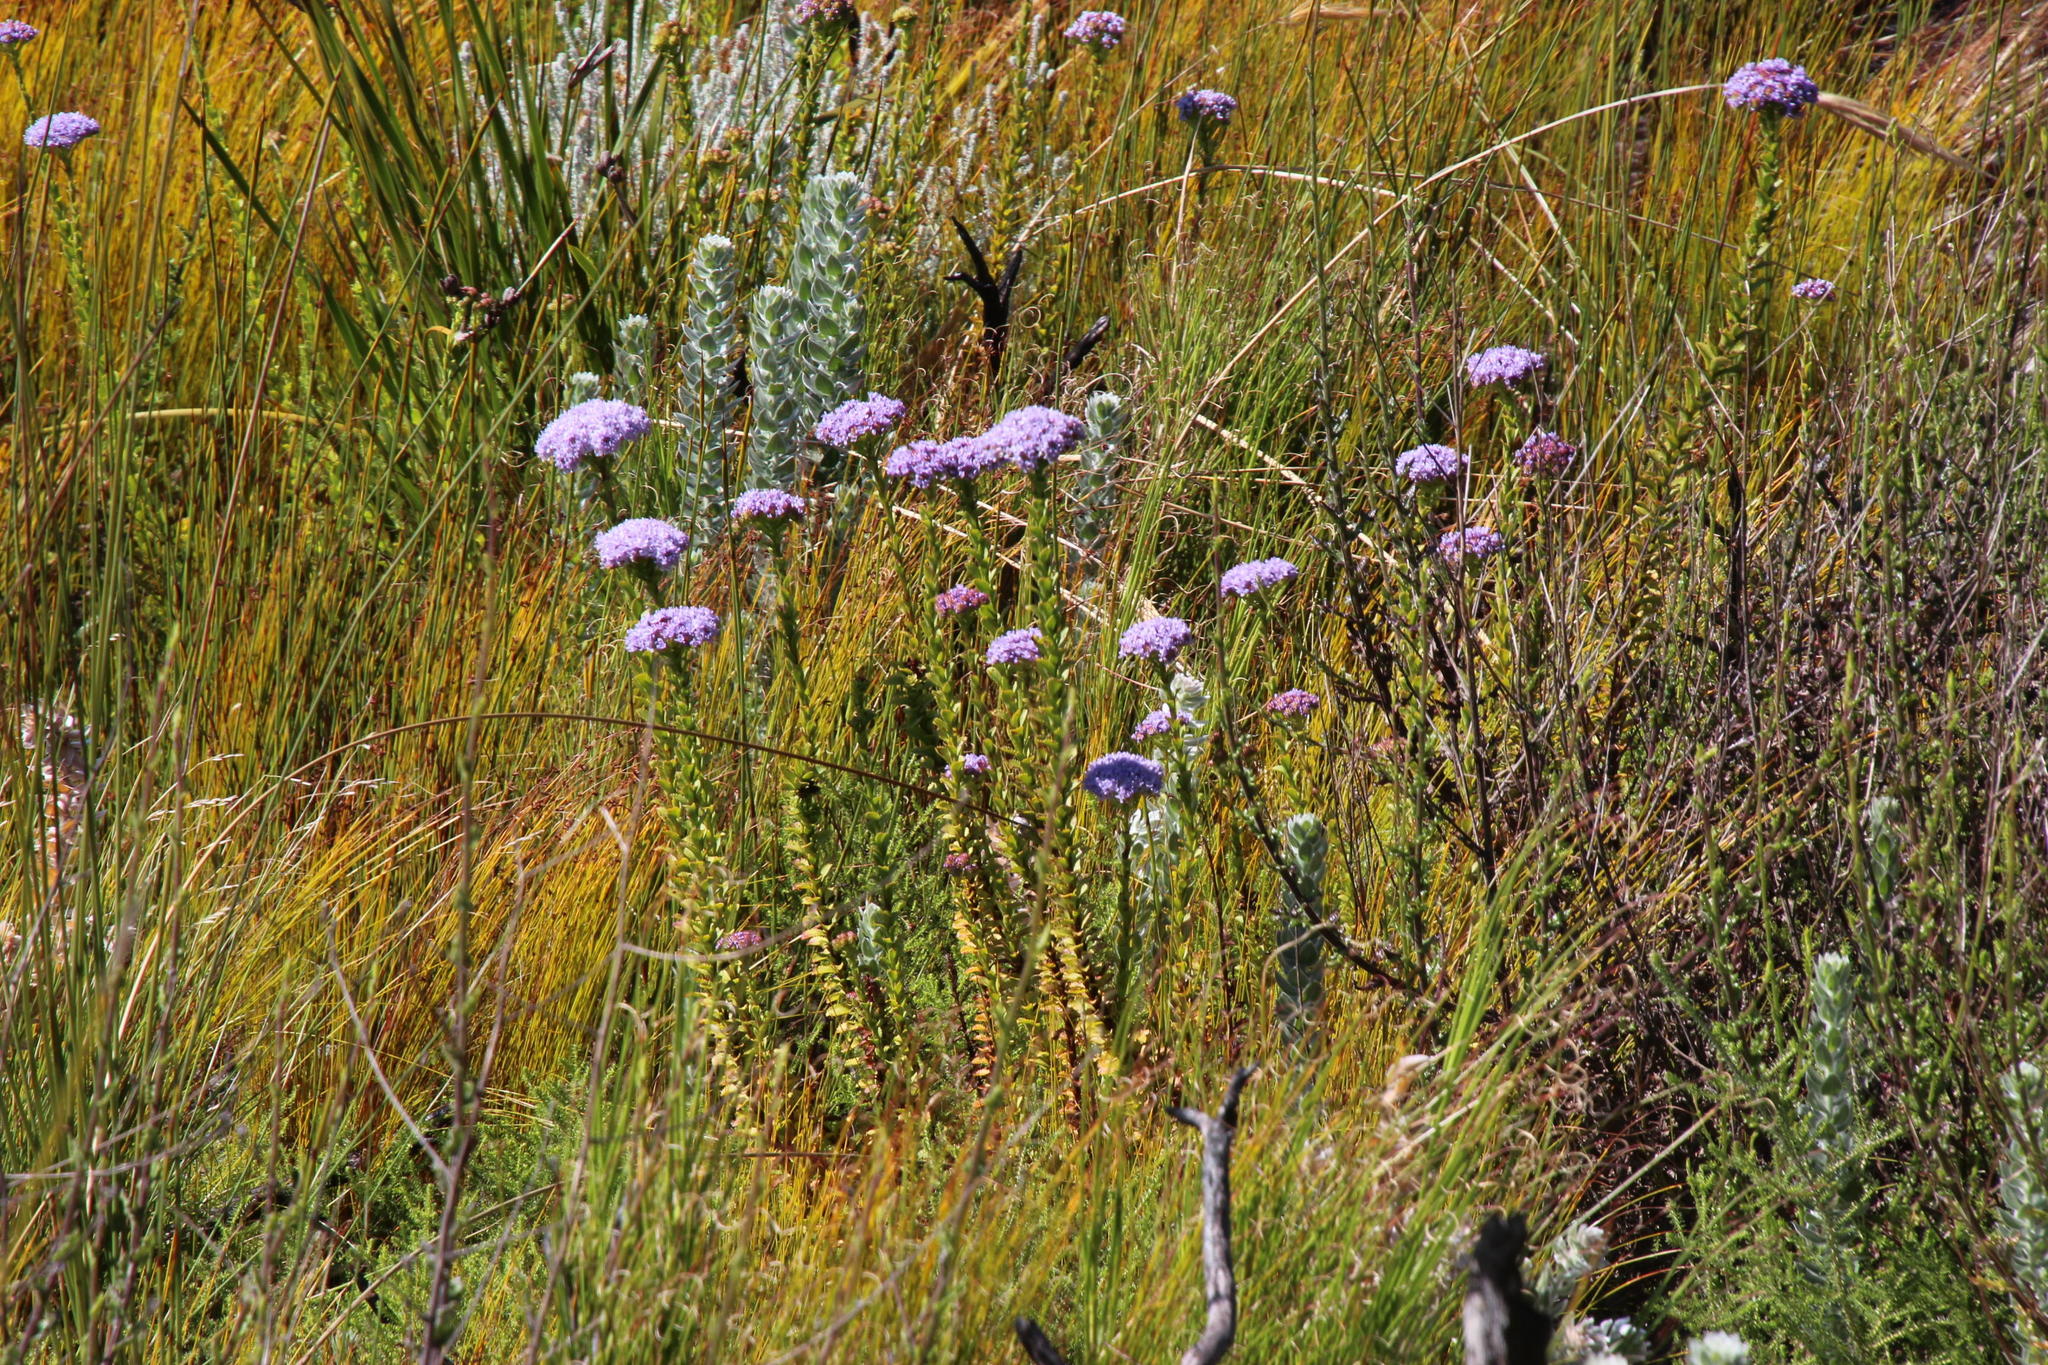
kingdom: Plantae
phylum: Tracheophyta
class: Magnoliopsida
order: Lamiales
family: Scrophulariaceae
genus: Pseudoselago
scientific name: Pseudoselago serrata
